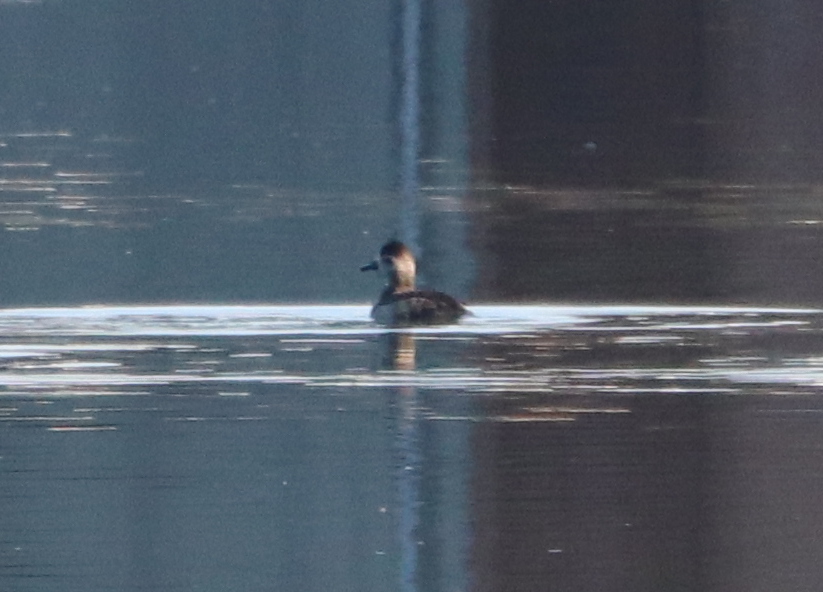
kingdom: Animalia
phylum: Chordata
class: Aves
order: Anseriformes
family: Anatidae
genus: Oxyura
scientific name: Oxyura jamaicensis
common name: Ruddy duck
